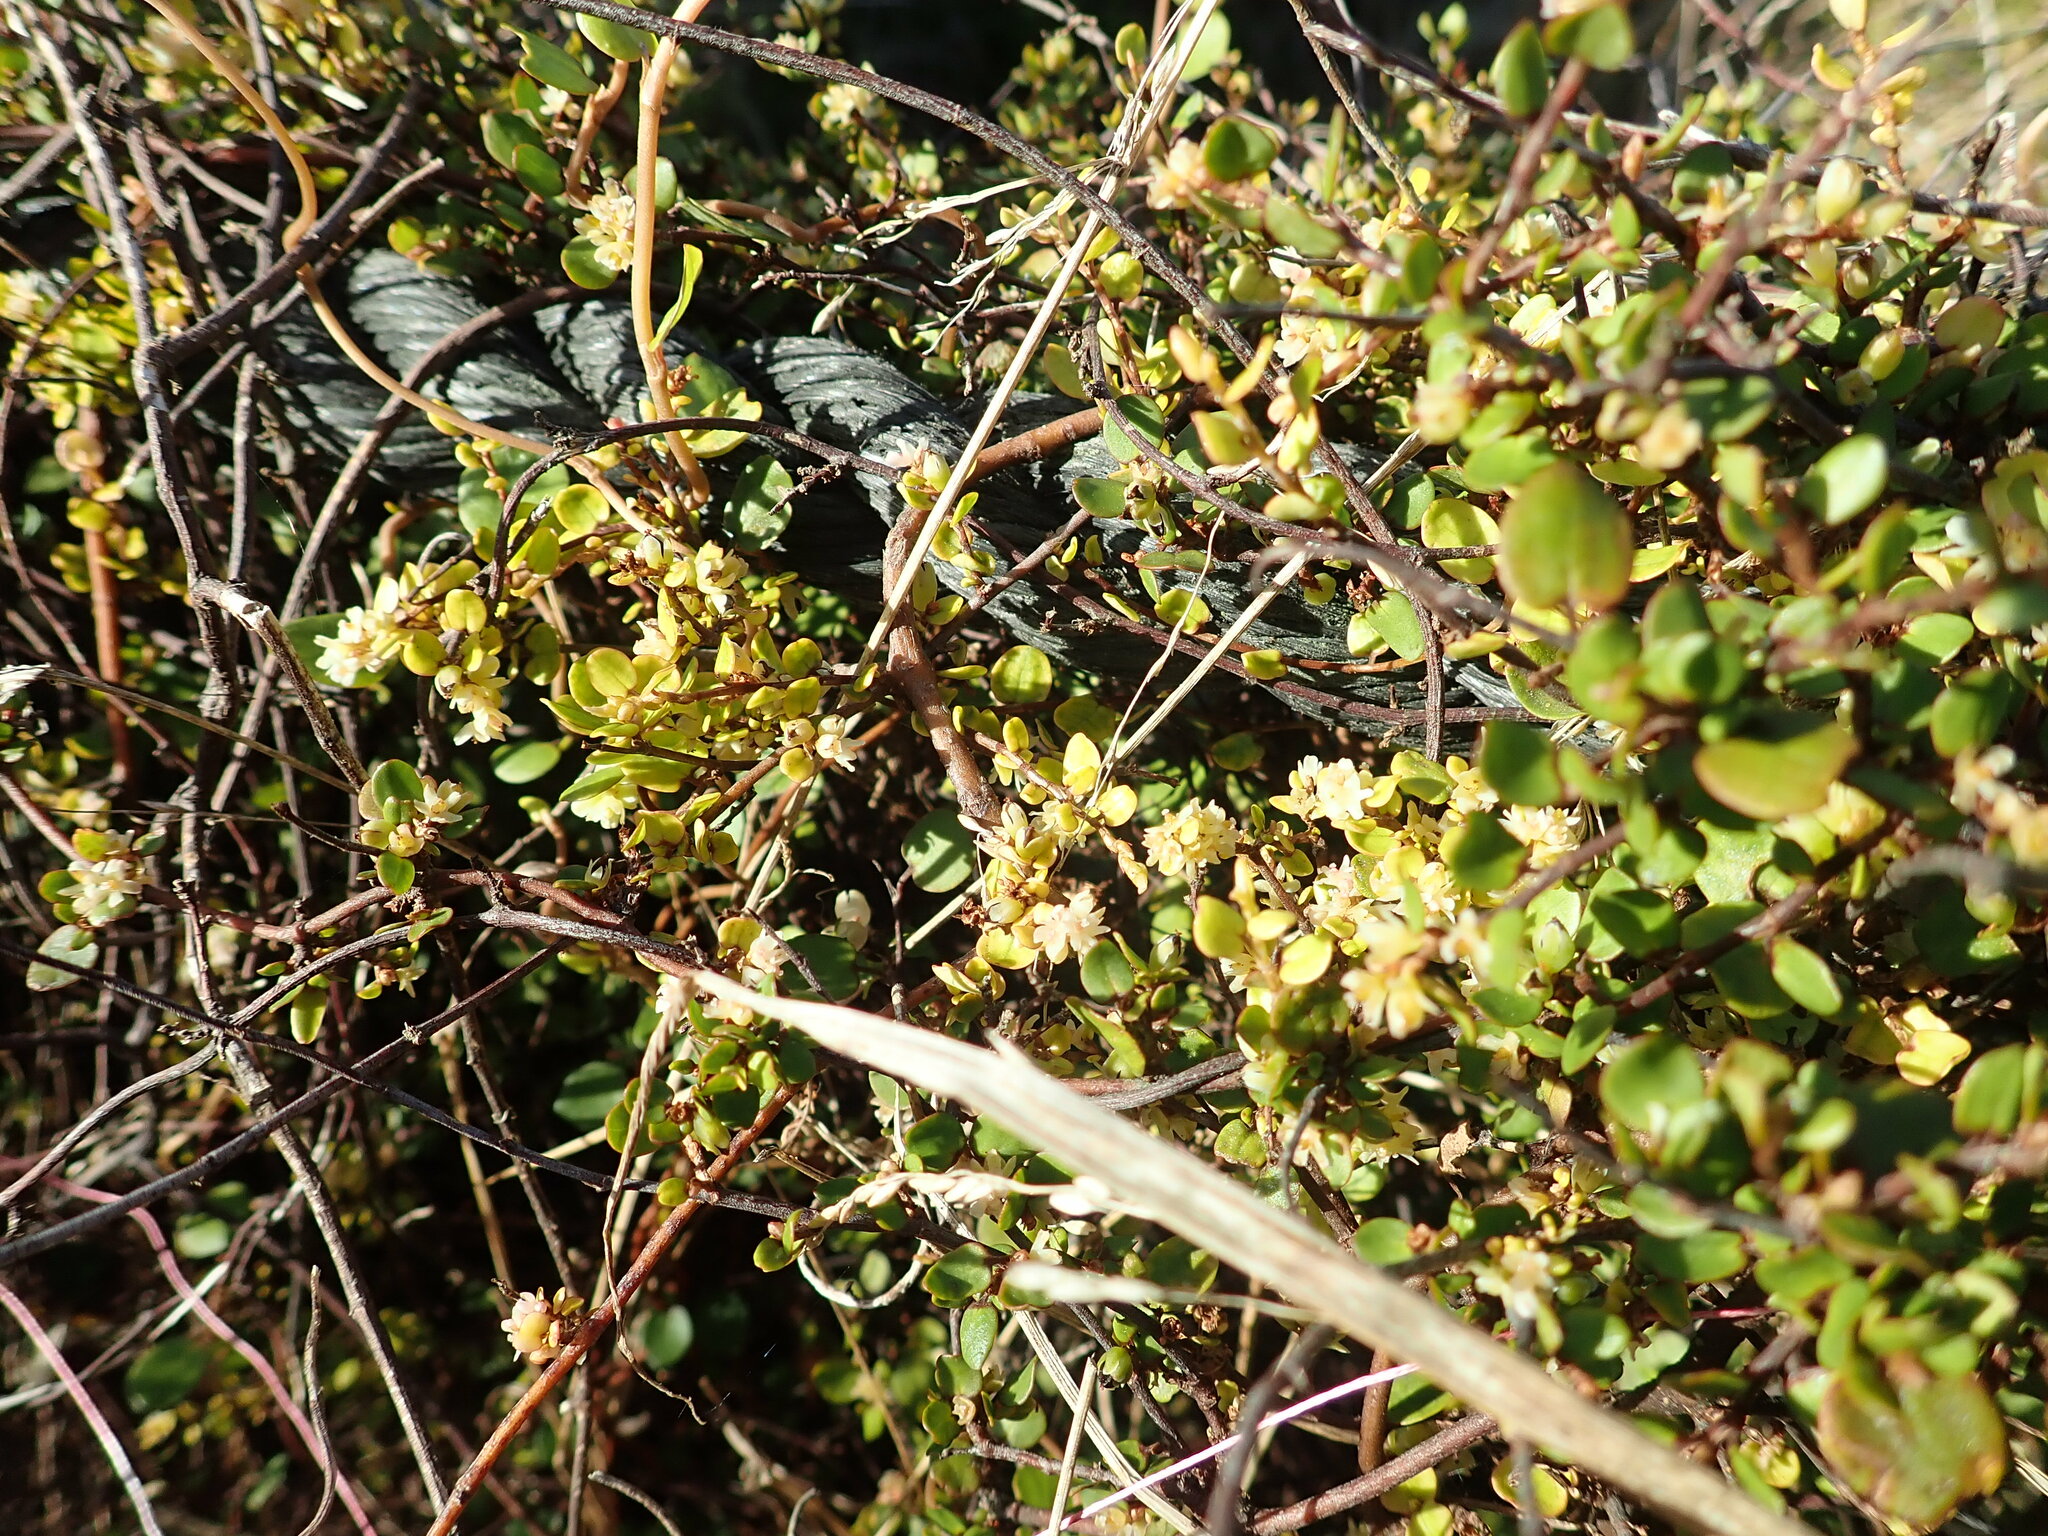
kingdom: Plantae
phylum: Tracheophyta
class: Magnoliopsida
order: Caryophyllales
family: Polygonaceae
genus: Muehlenbeckia
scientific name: Muehlenbeckia complexa
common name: Wireplant
